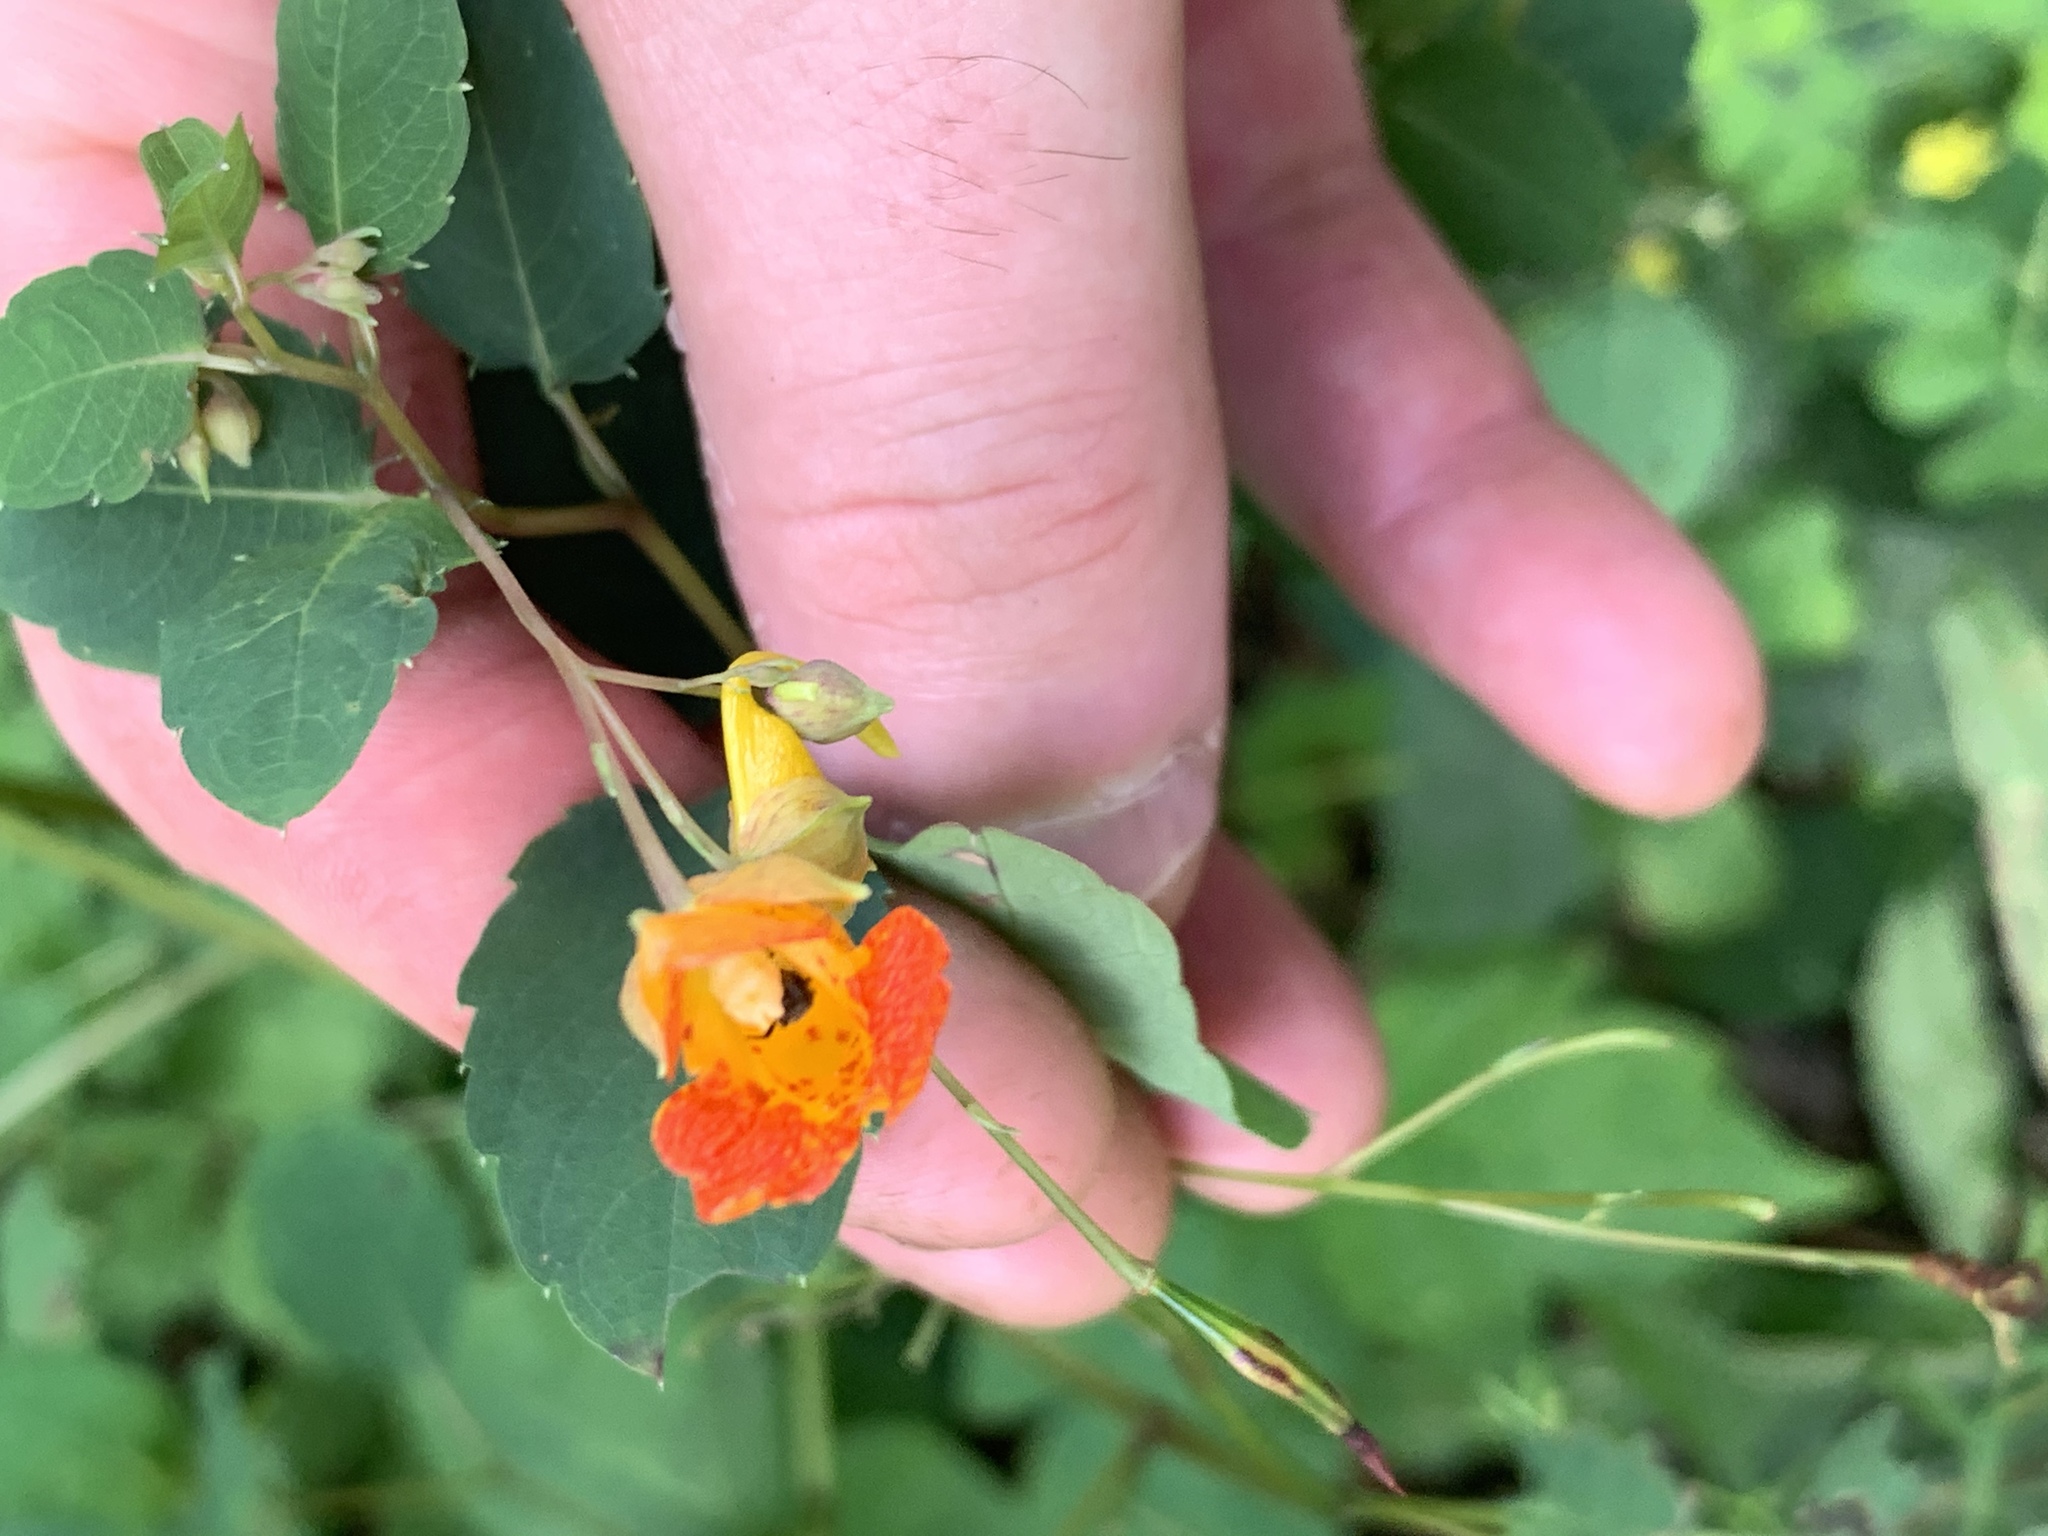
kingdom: Plantae
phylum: Tracheophyta
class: Magnoliopsida
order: Ericales
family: Balsaminaceae
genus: Impatiens
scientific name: Impatiens capensis
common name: Orange balsam
